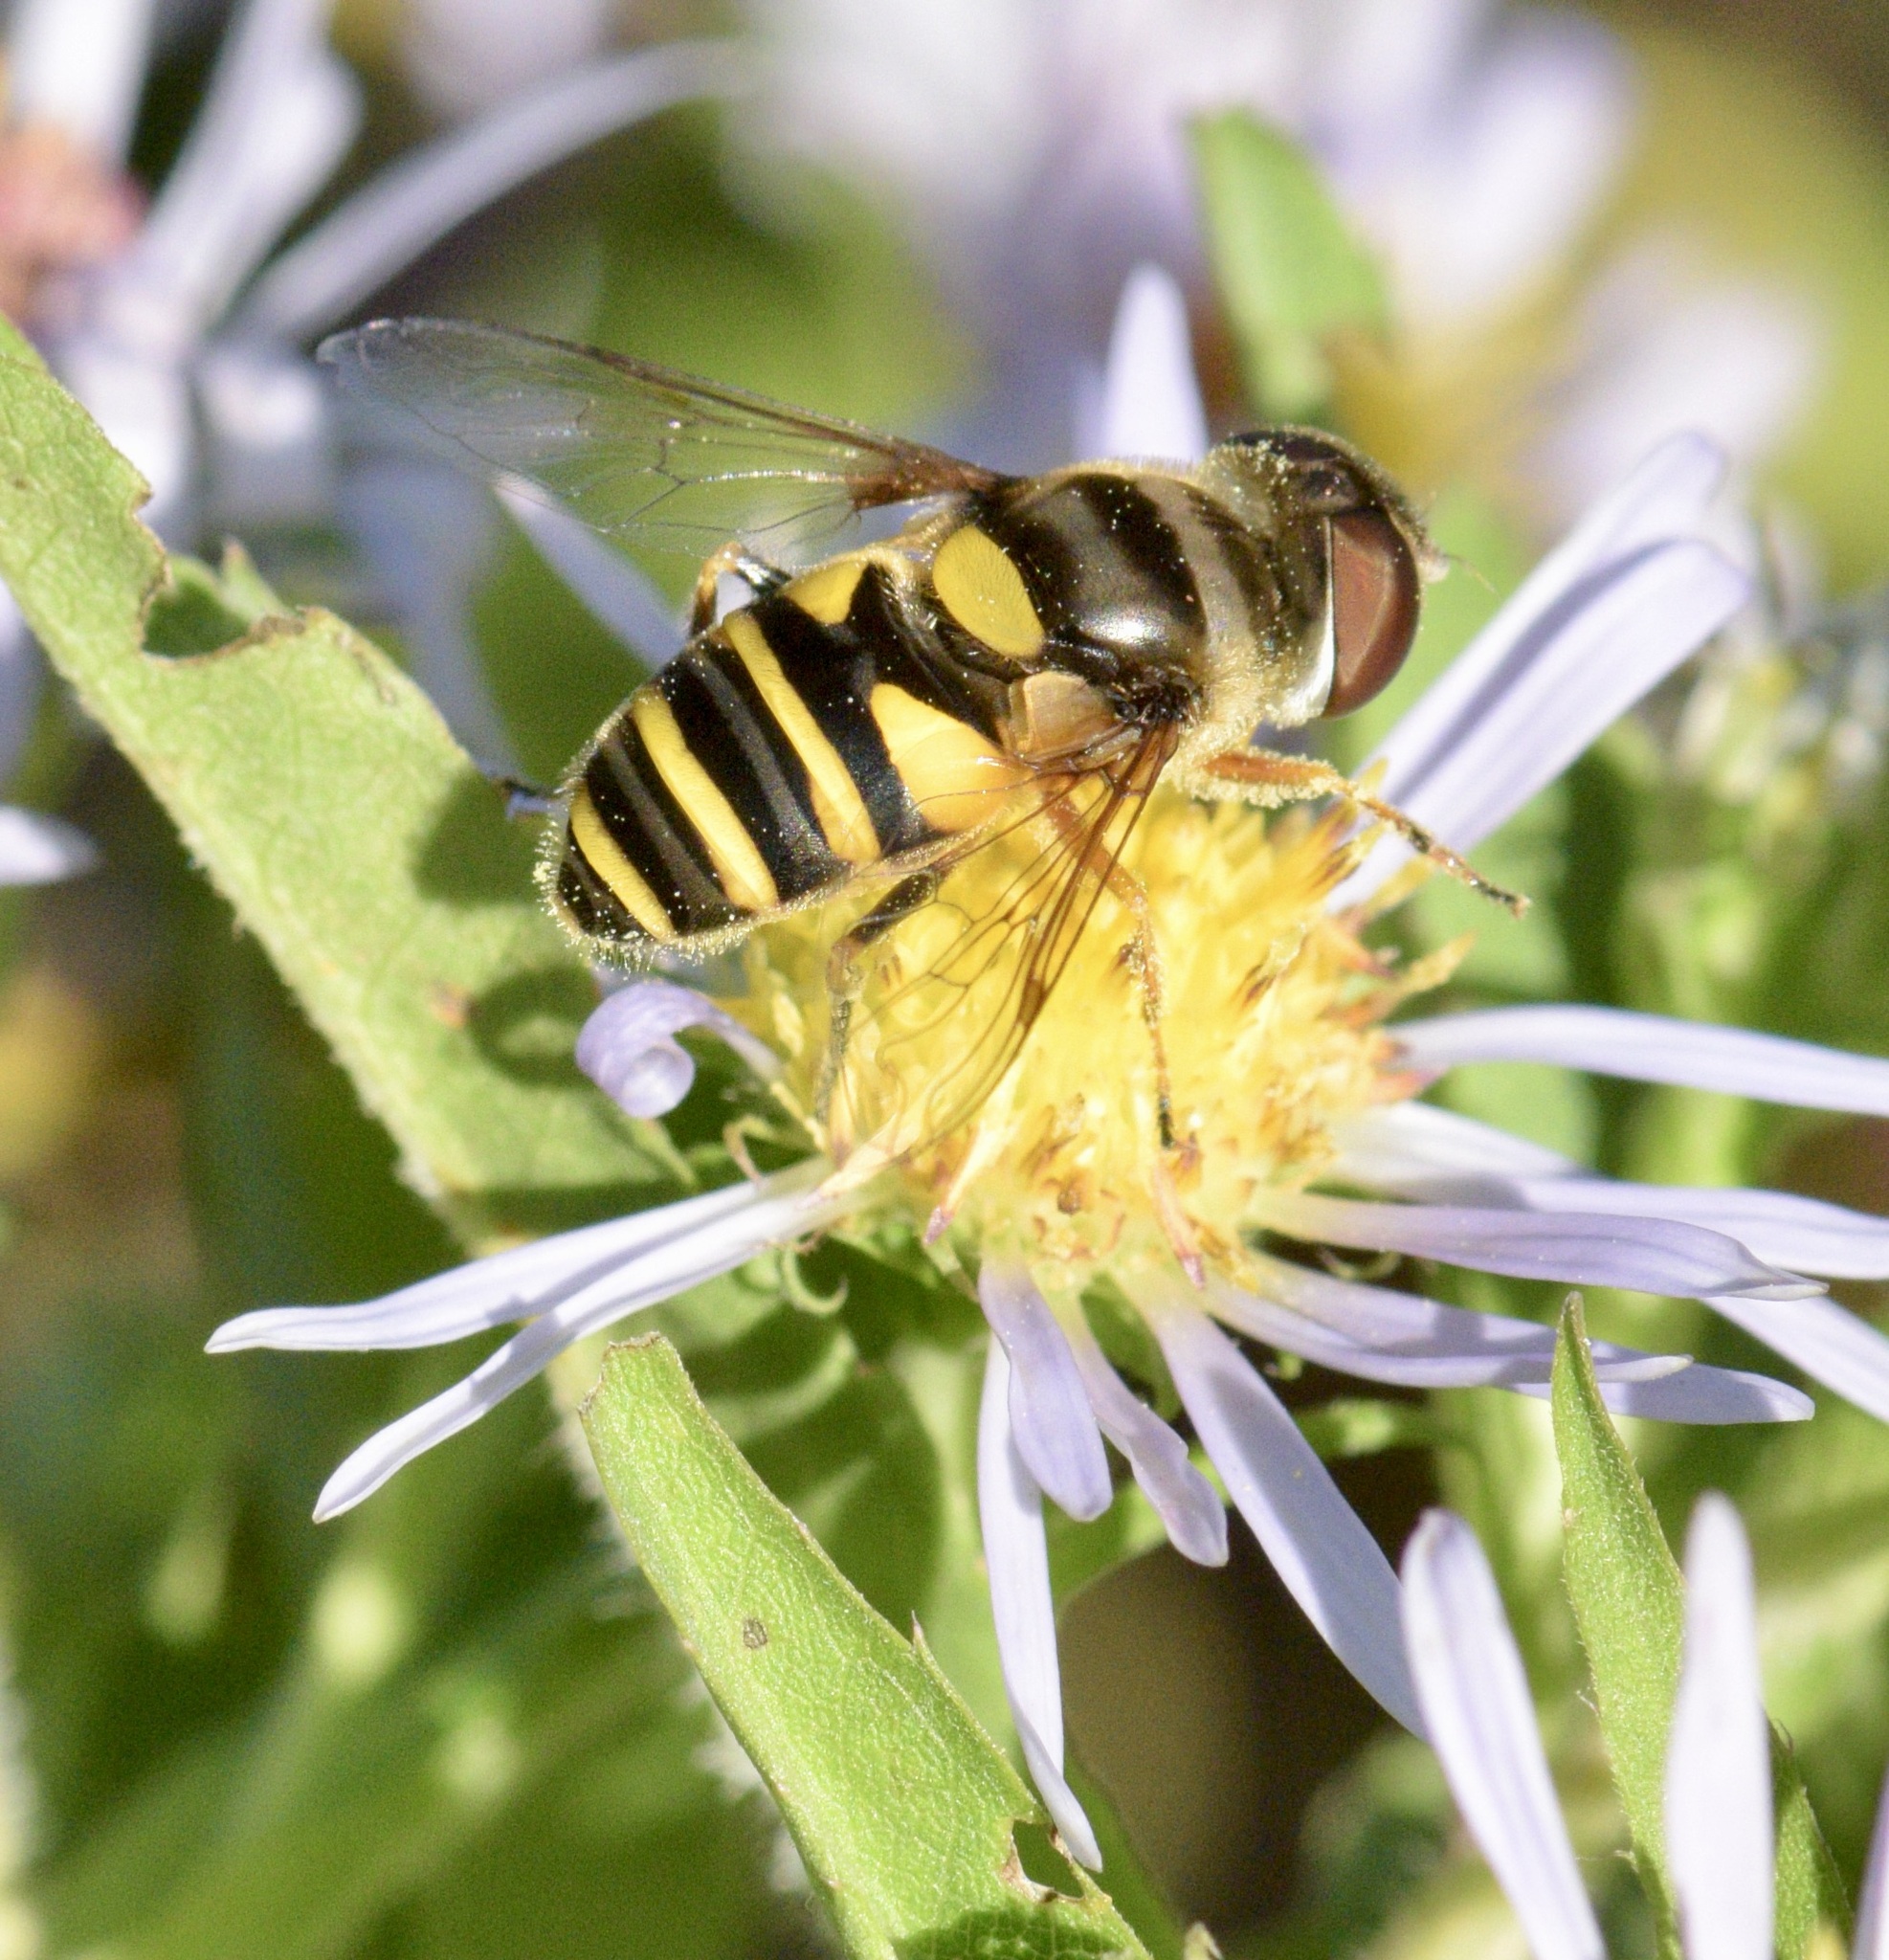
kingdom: Animalia
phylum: Arthropoda
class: Insecta
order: Diptera
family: Syrphidae
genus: Eristalis
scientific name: Eristalis transversa
